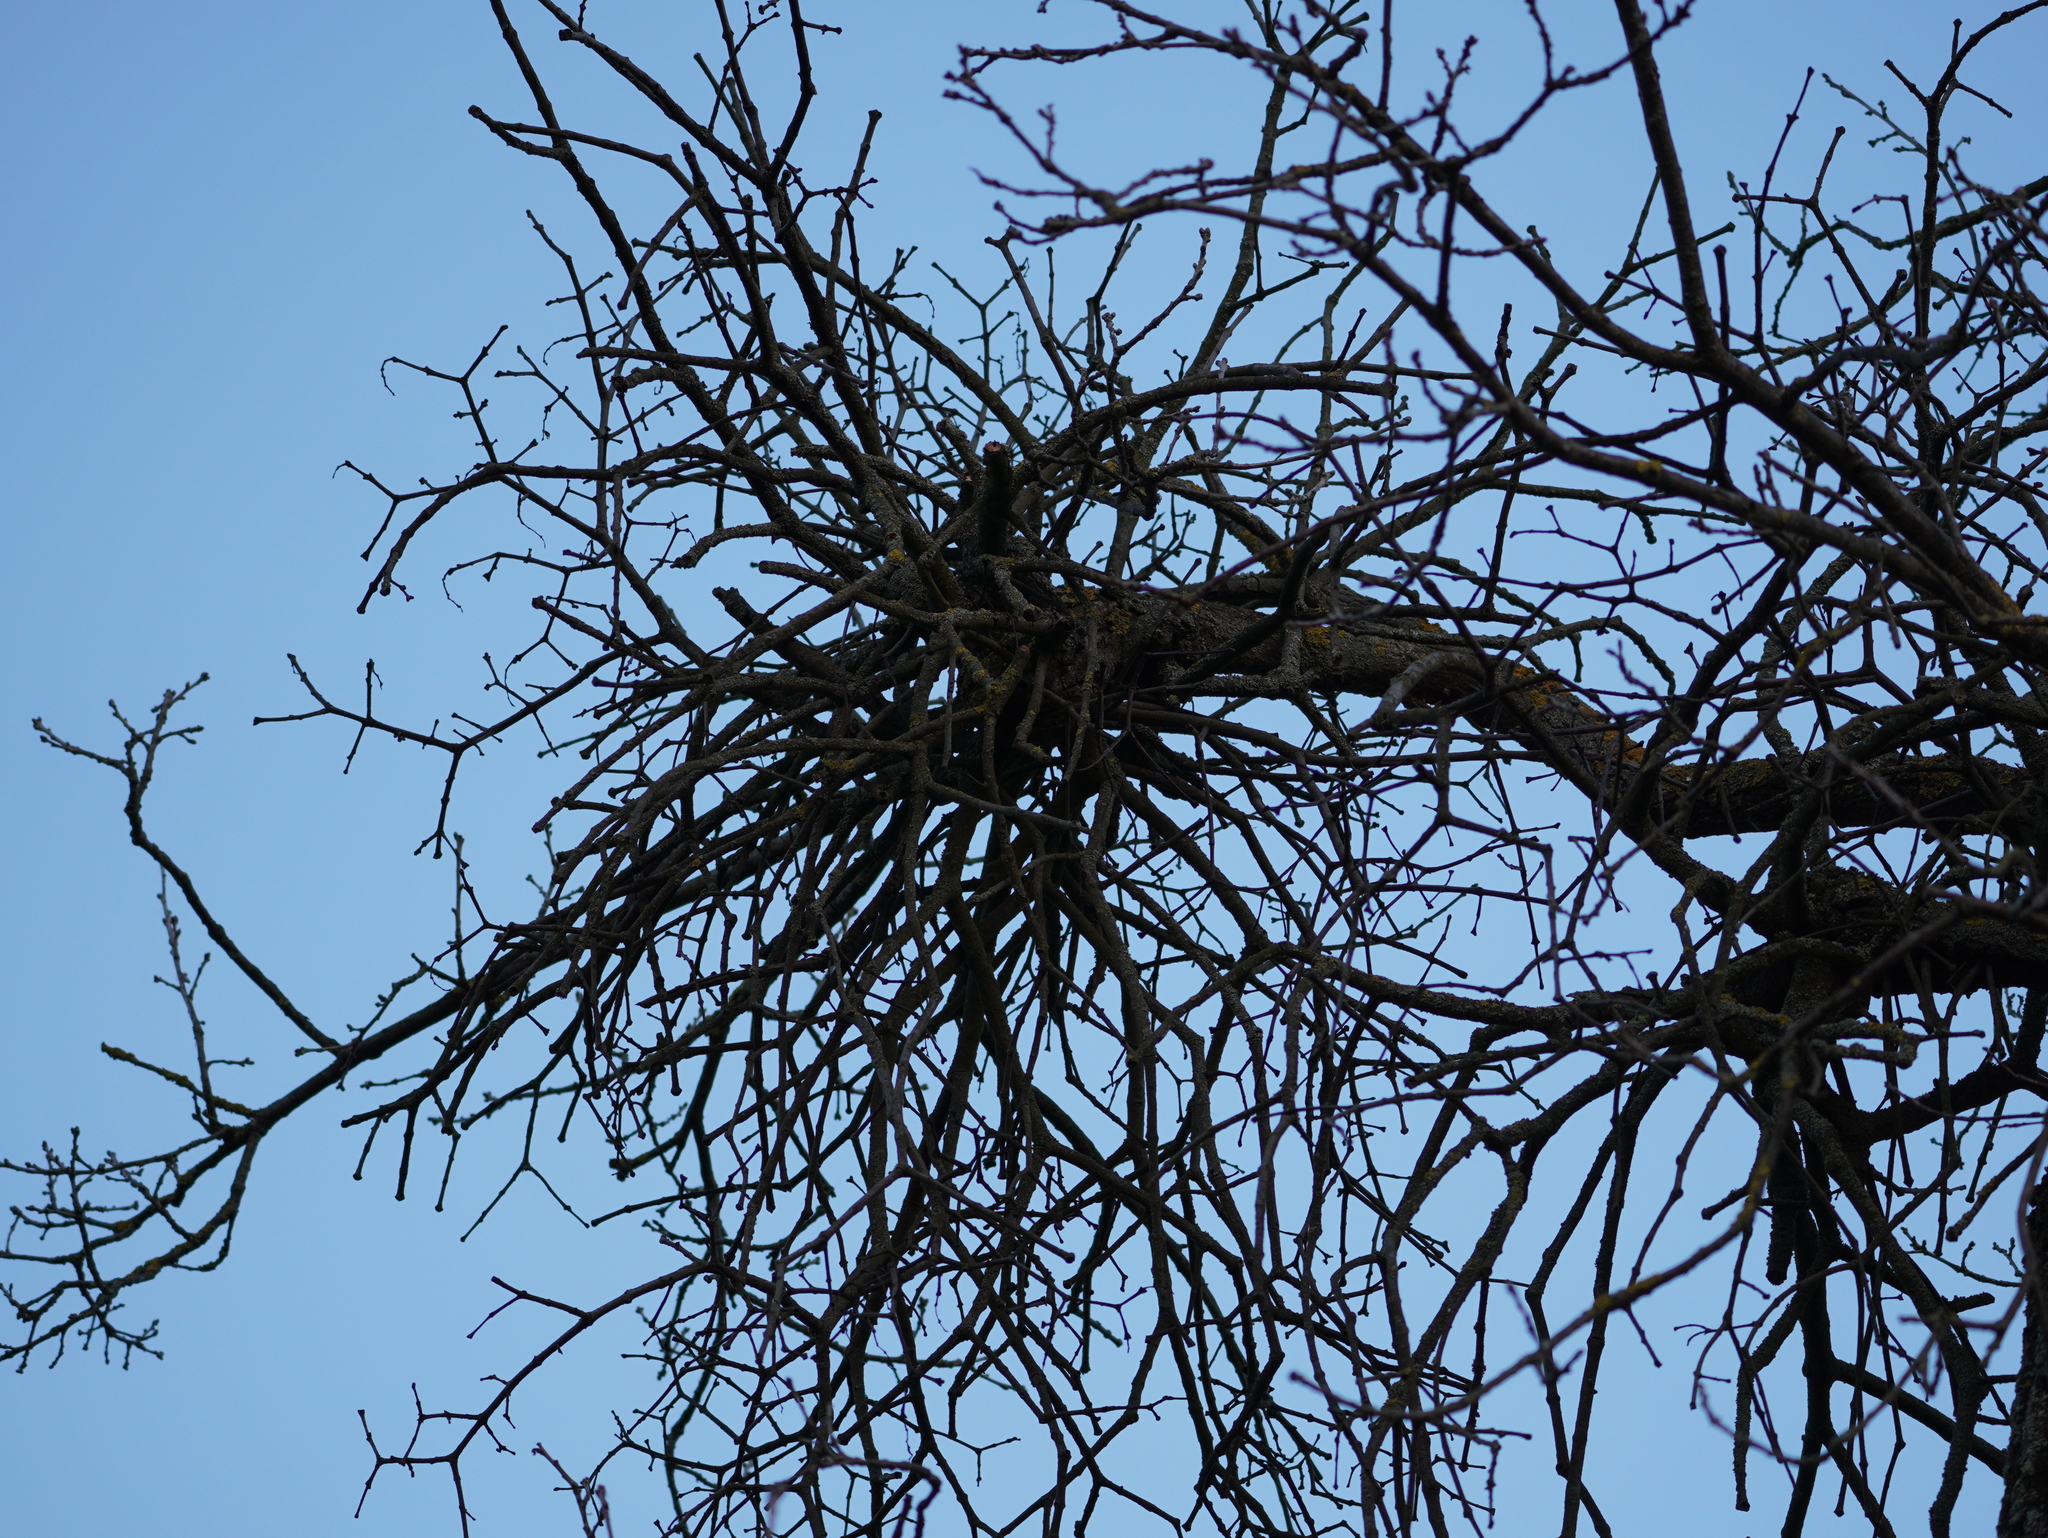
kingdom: Plantae
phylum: Tracheophyta
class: Magnoliopsida
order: Santalales
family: Loranthaceae
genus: Loranthus
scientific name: Loranthus europaeus
